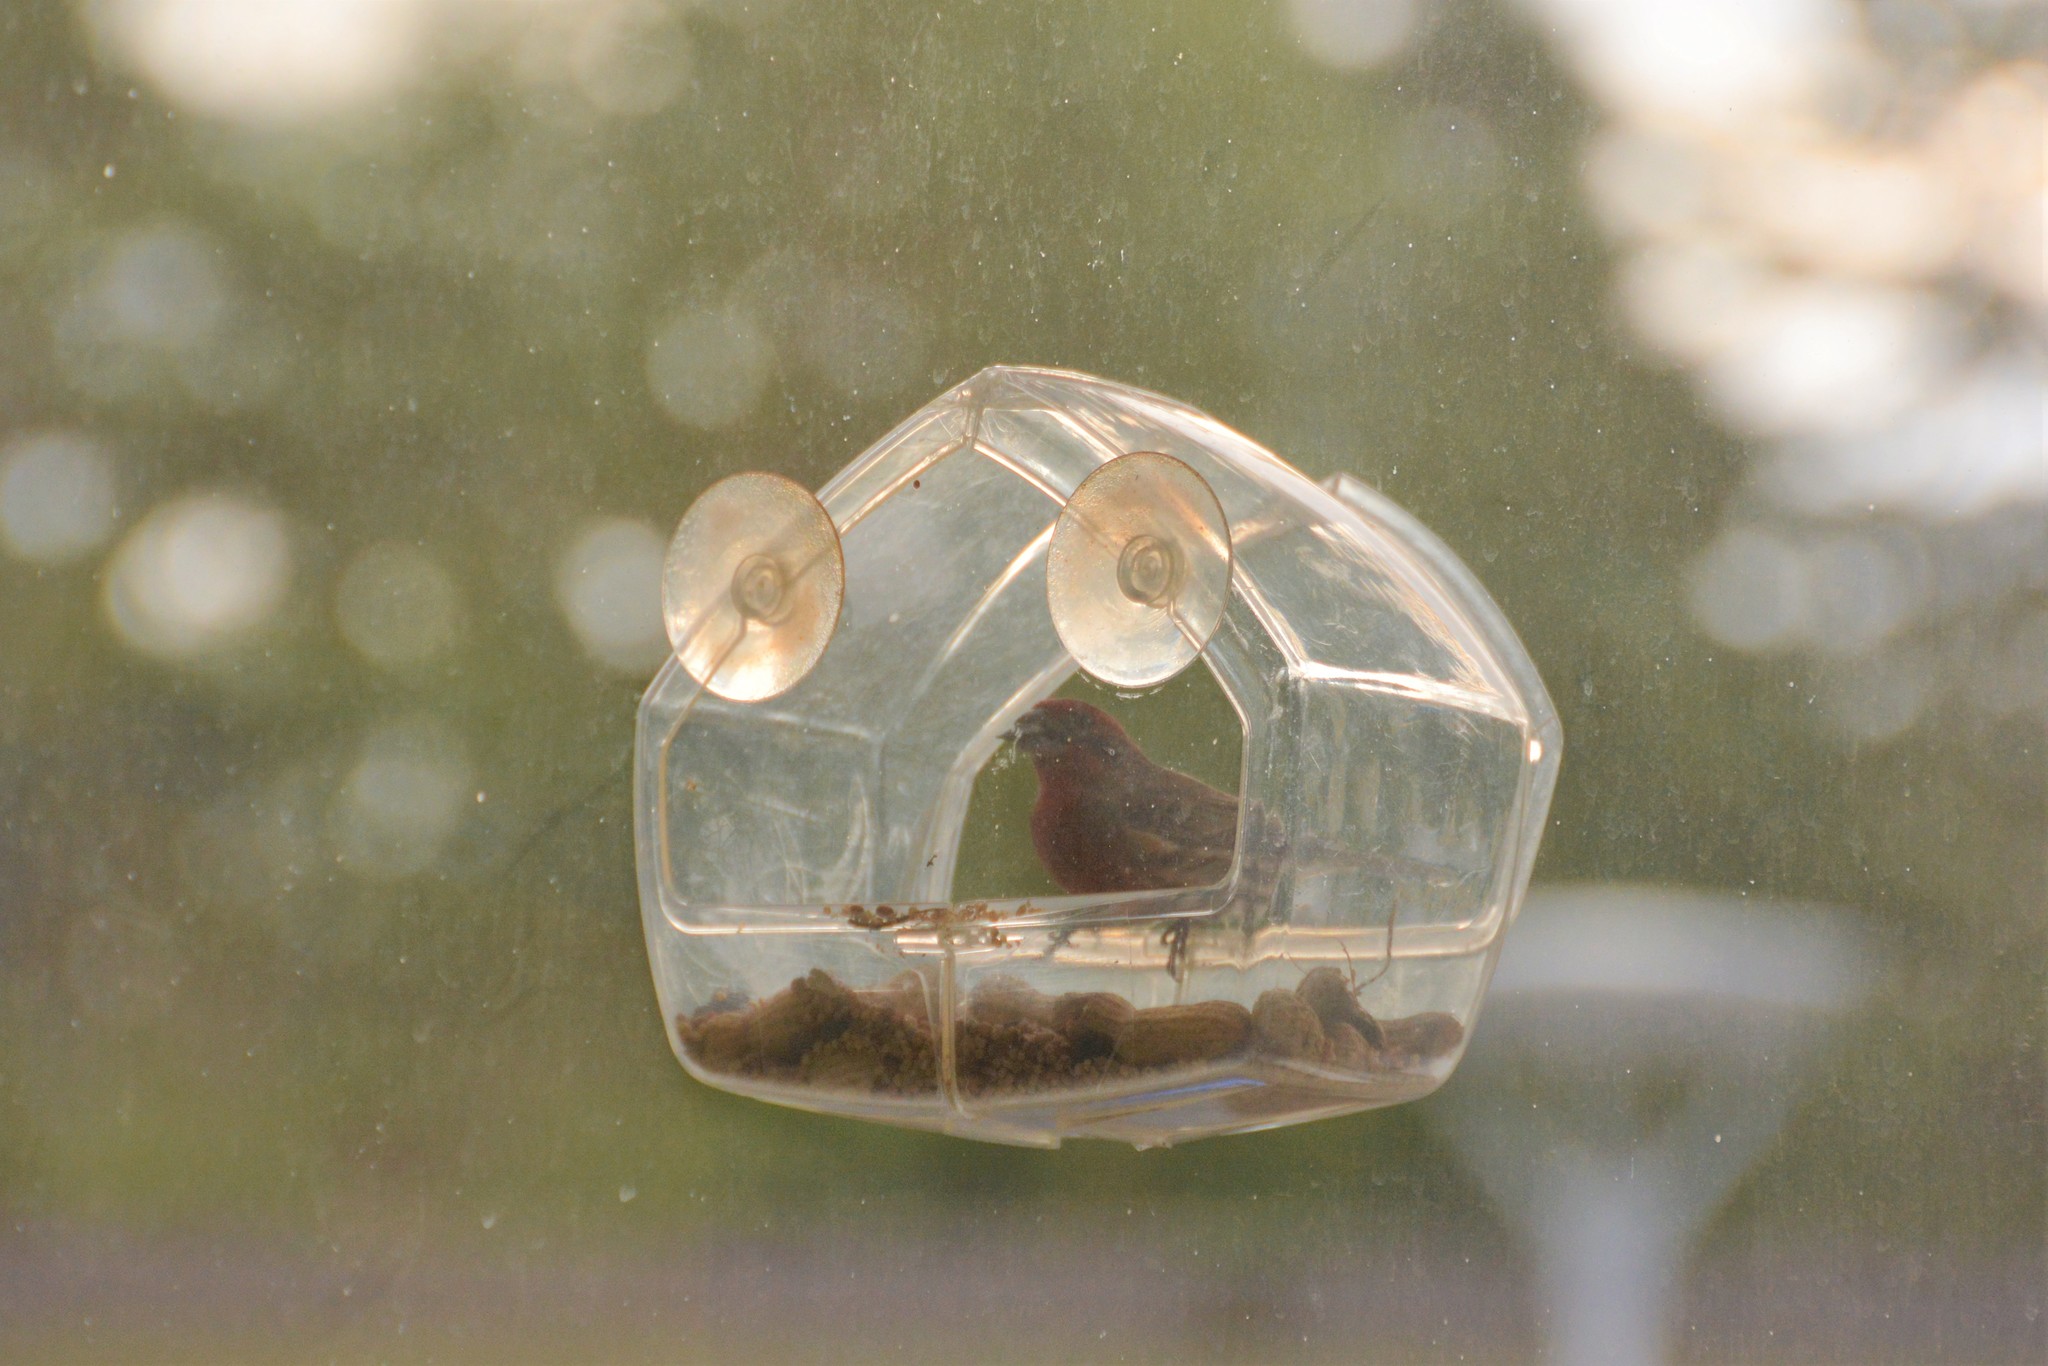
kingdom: Animalia
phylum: Chordata
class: Aves
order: Passeriformes
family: Fringillidae
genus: Haemorhous
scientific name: Haemorhous mexicanus
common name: House finch
